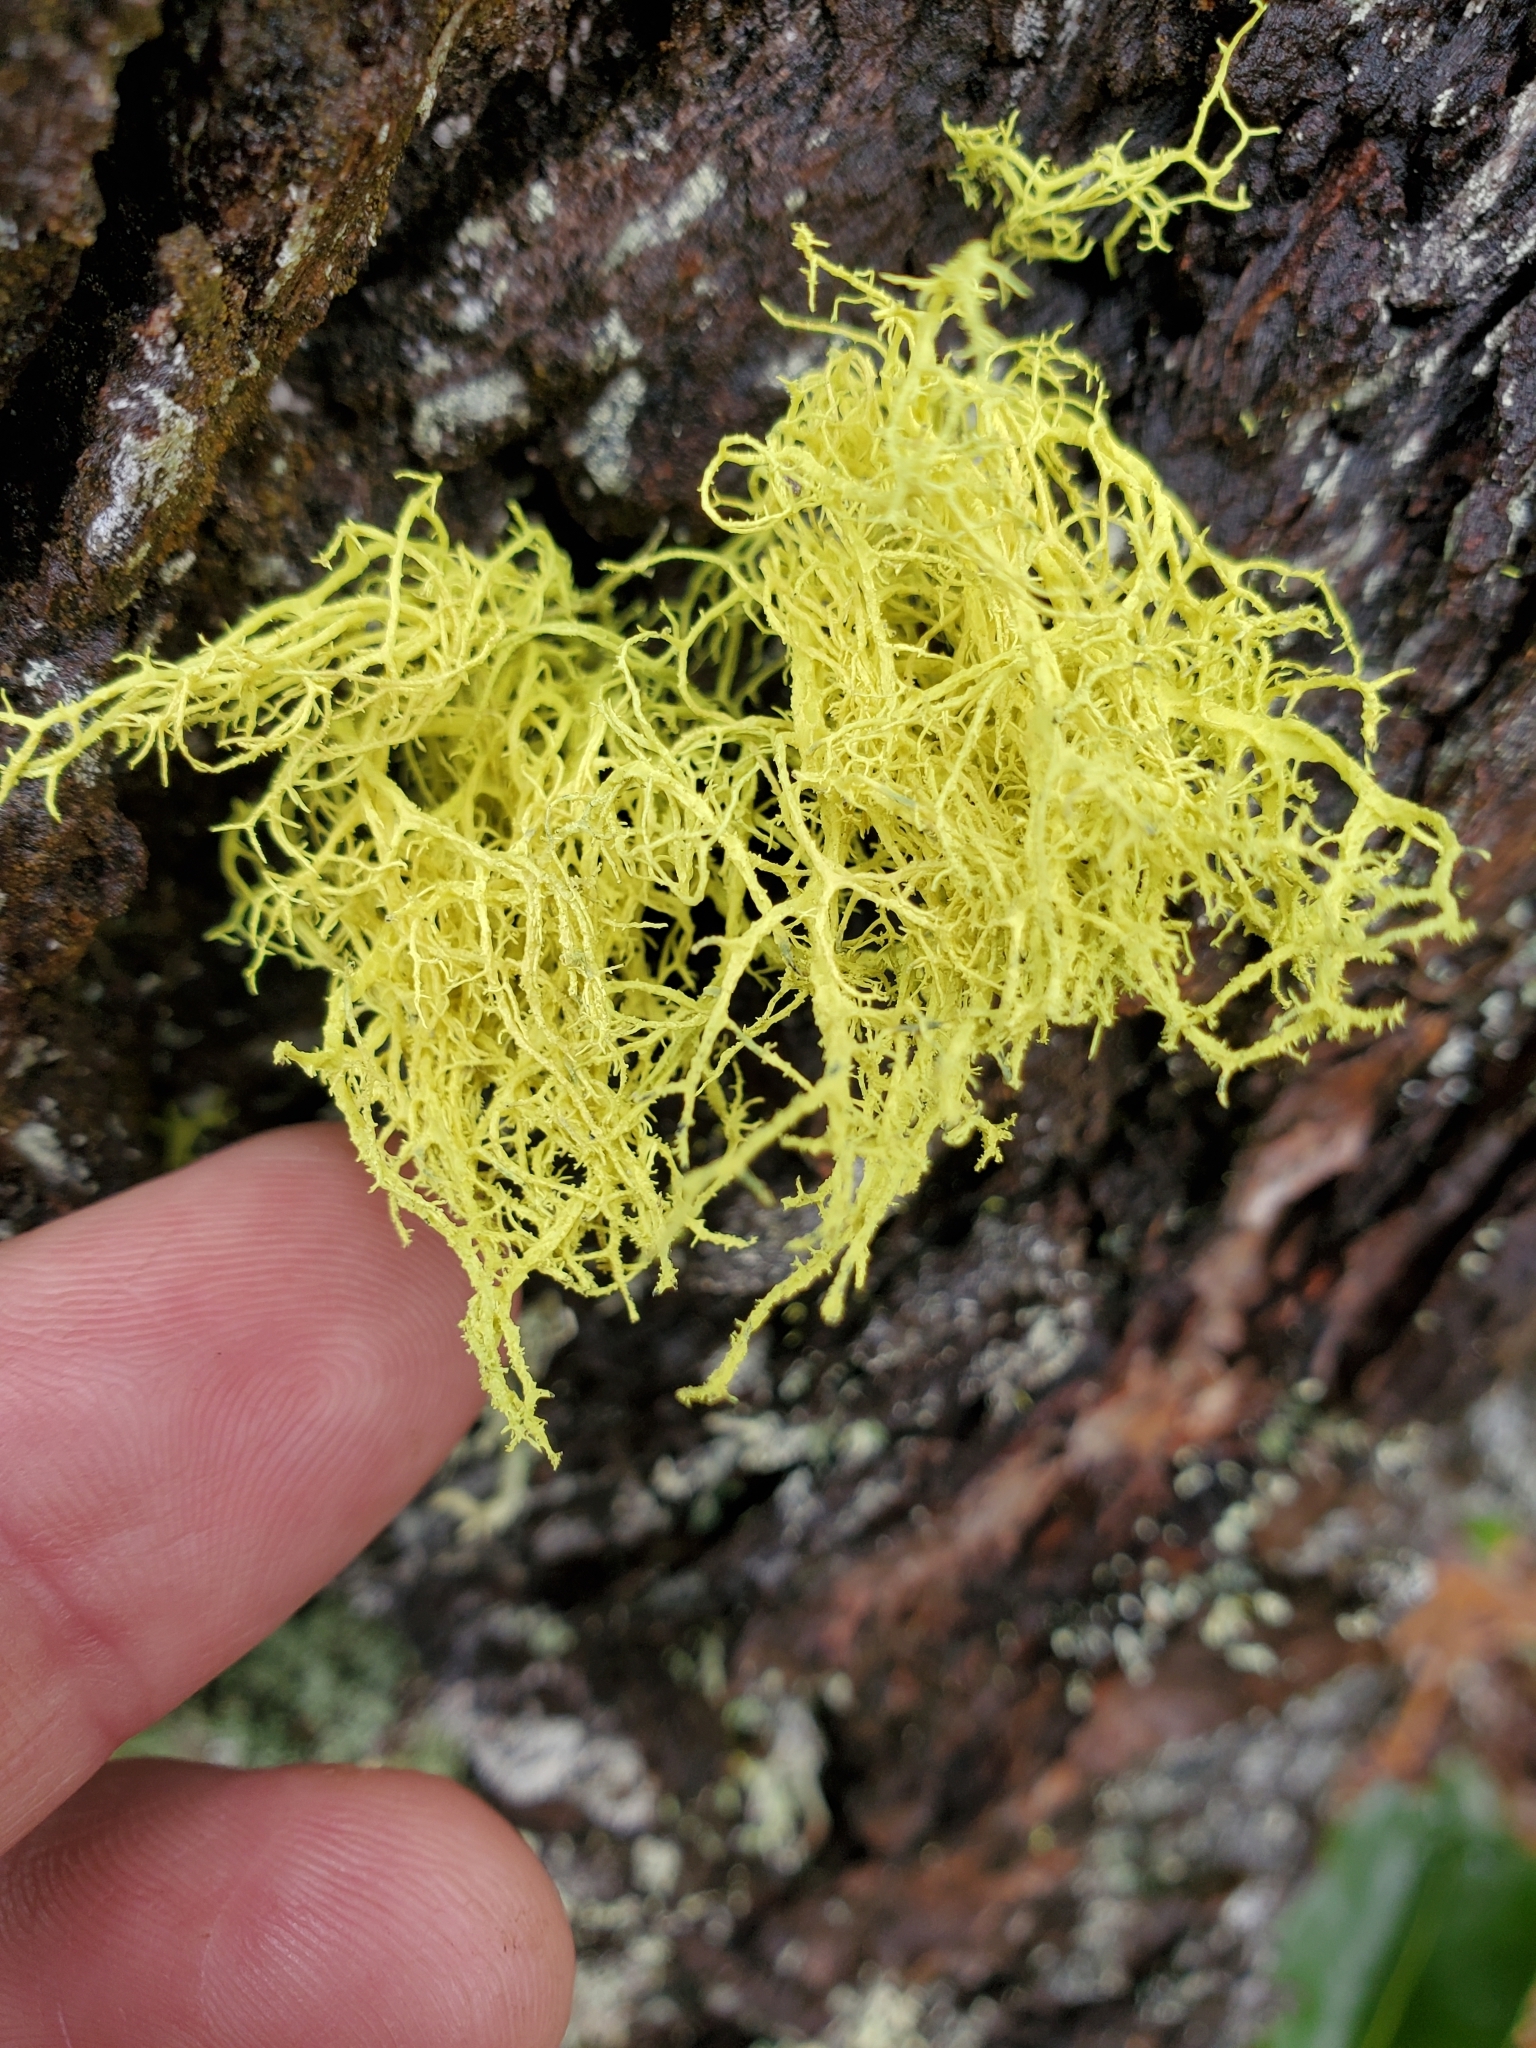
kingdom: Fungi
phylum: Ascomycota
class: Lecanoromycetes
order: Lecanorales
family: Parmeliaceae
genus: Letharia
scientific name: Letharia vulpina
